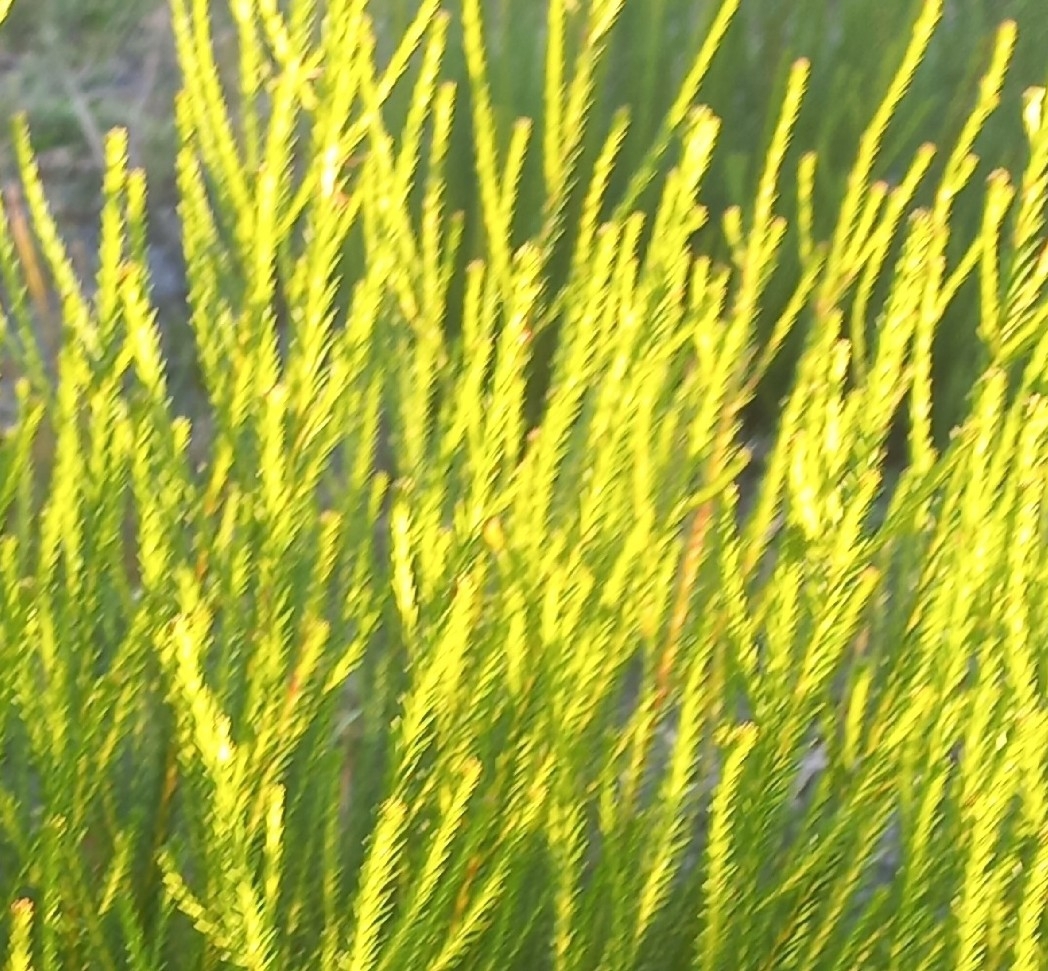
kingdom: Plantae
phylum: Tracheophyta
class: Magnoliopsida
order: Bruniales
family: Bruniaceae
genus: Berzelia
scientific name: Berzelia lanuginosa
